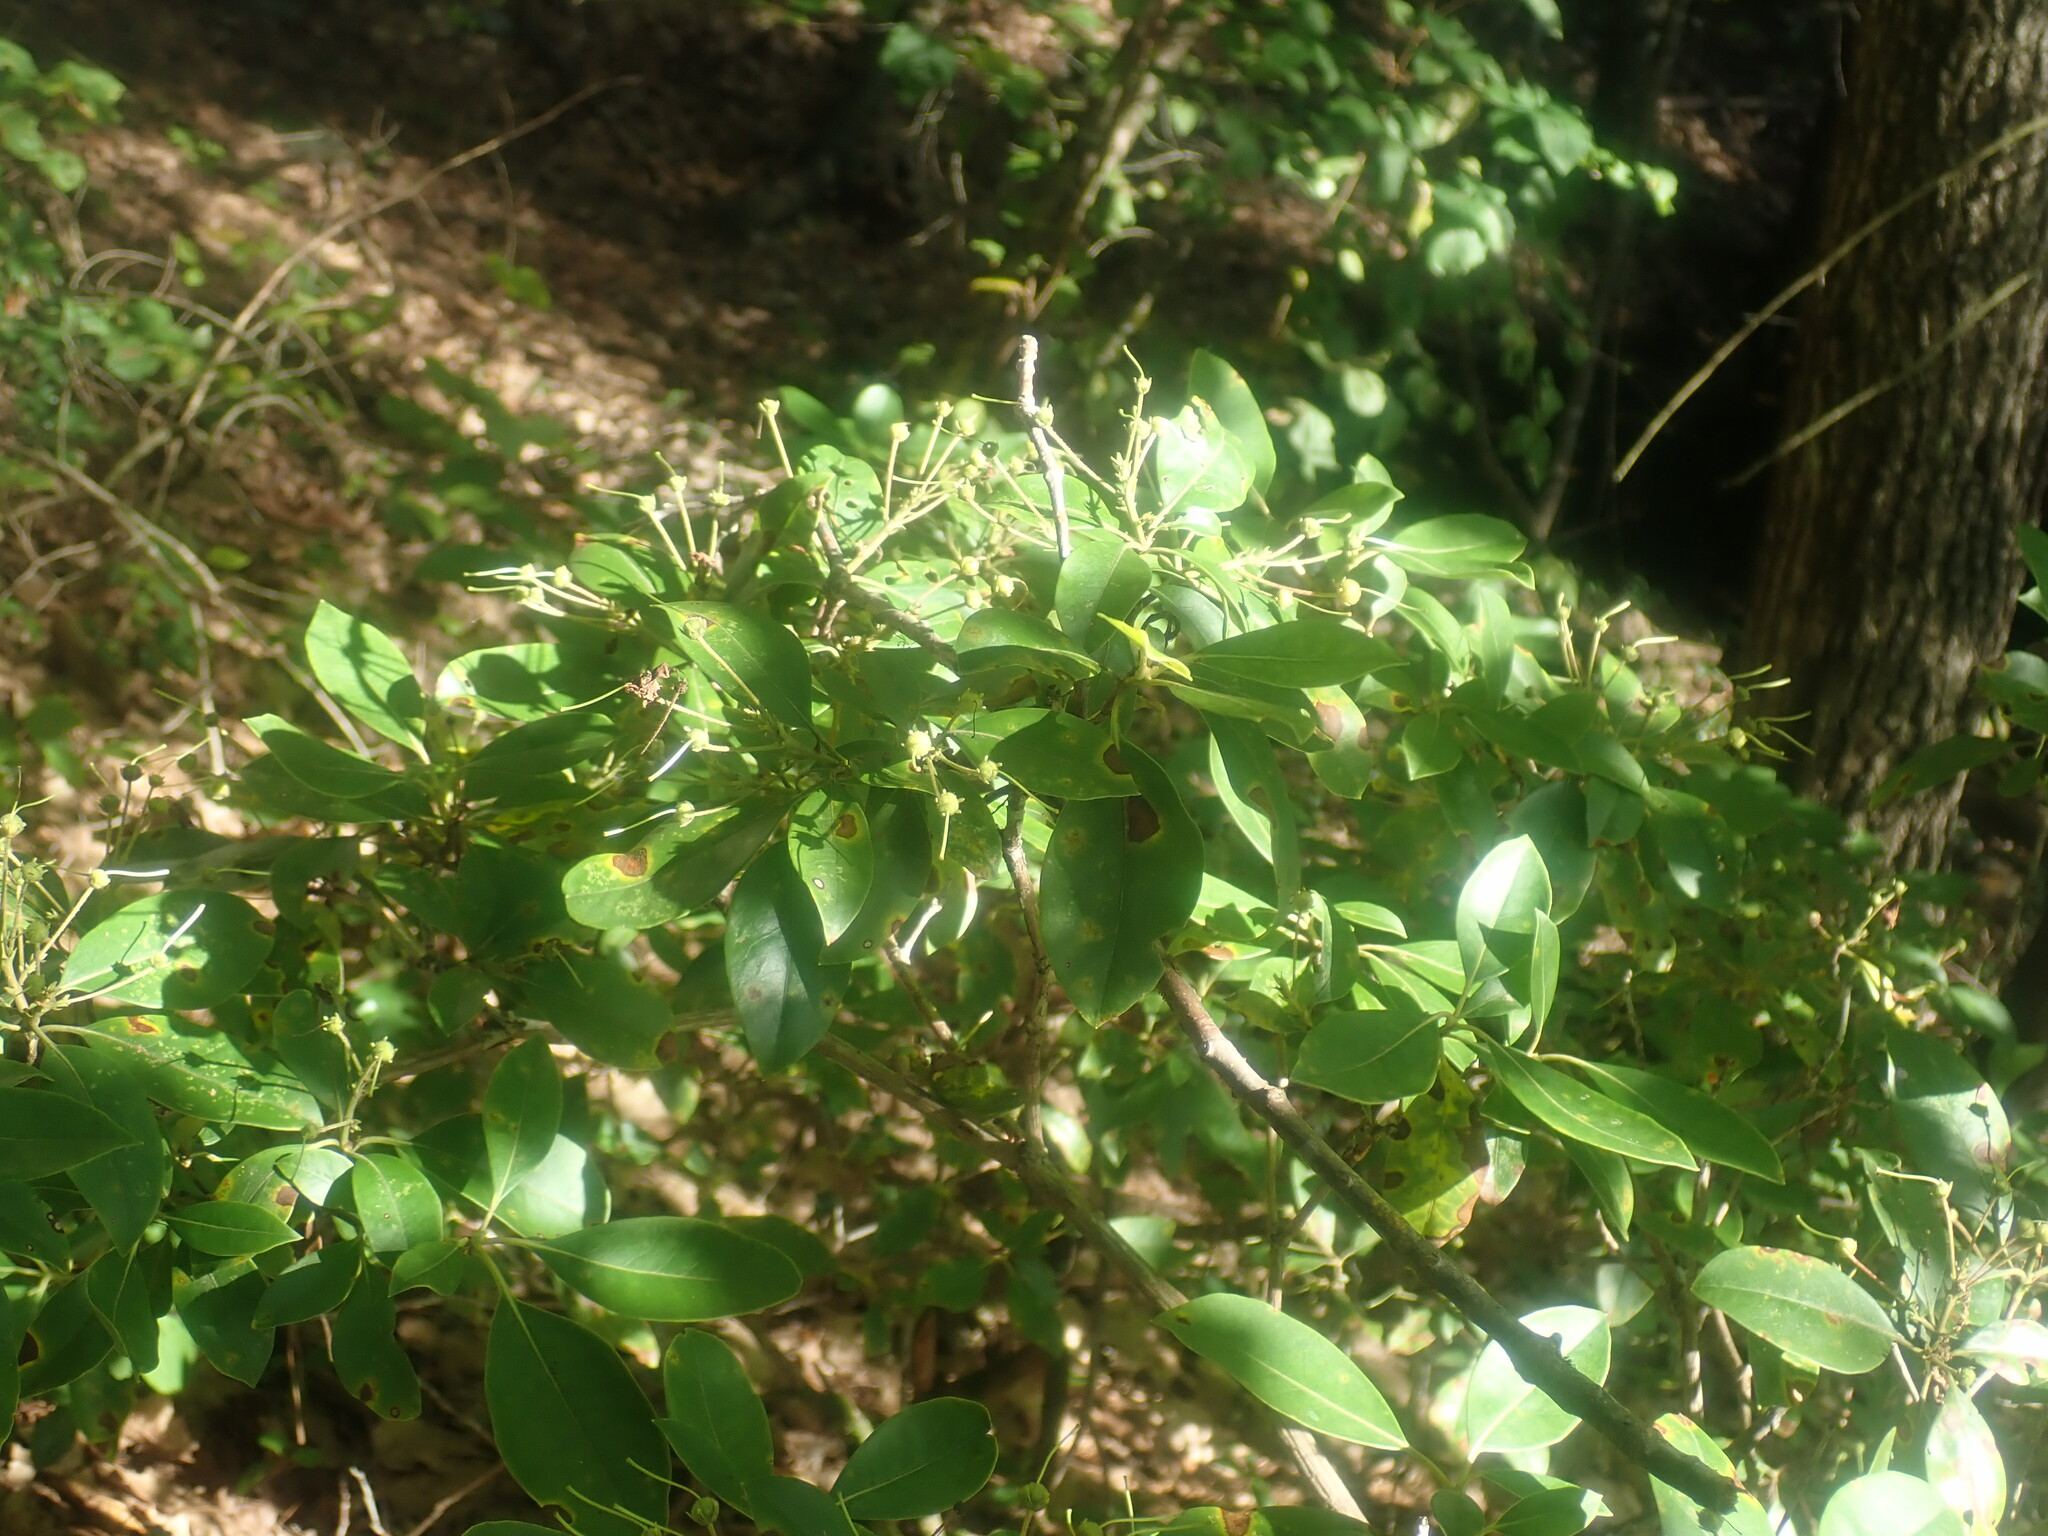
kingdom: Plantae
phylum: Tracheophyta
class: Magnoliopsida
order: Ericales
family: Ericaceae
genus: Kalmia
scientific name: Kalmia latifolia
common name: Mountain-laurel
